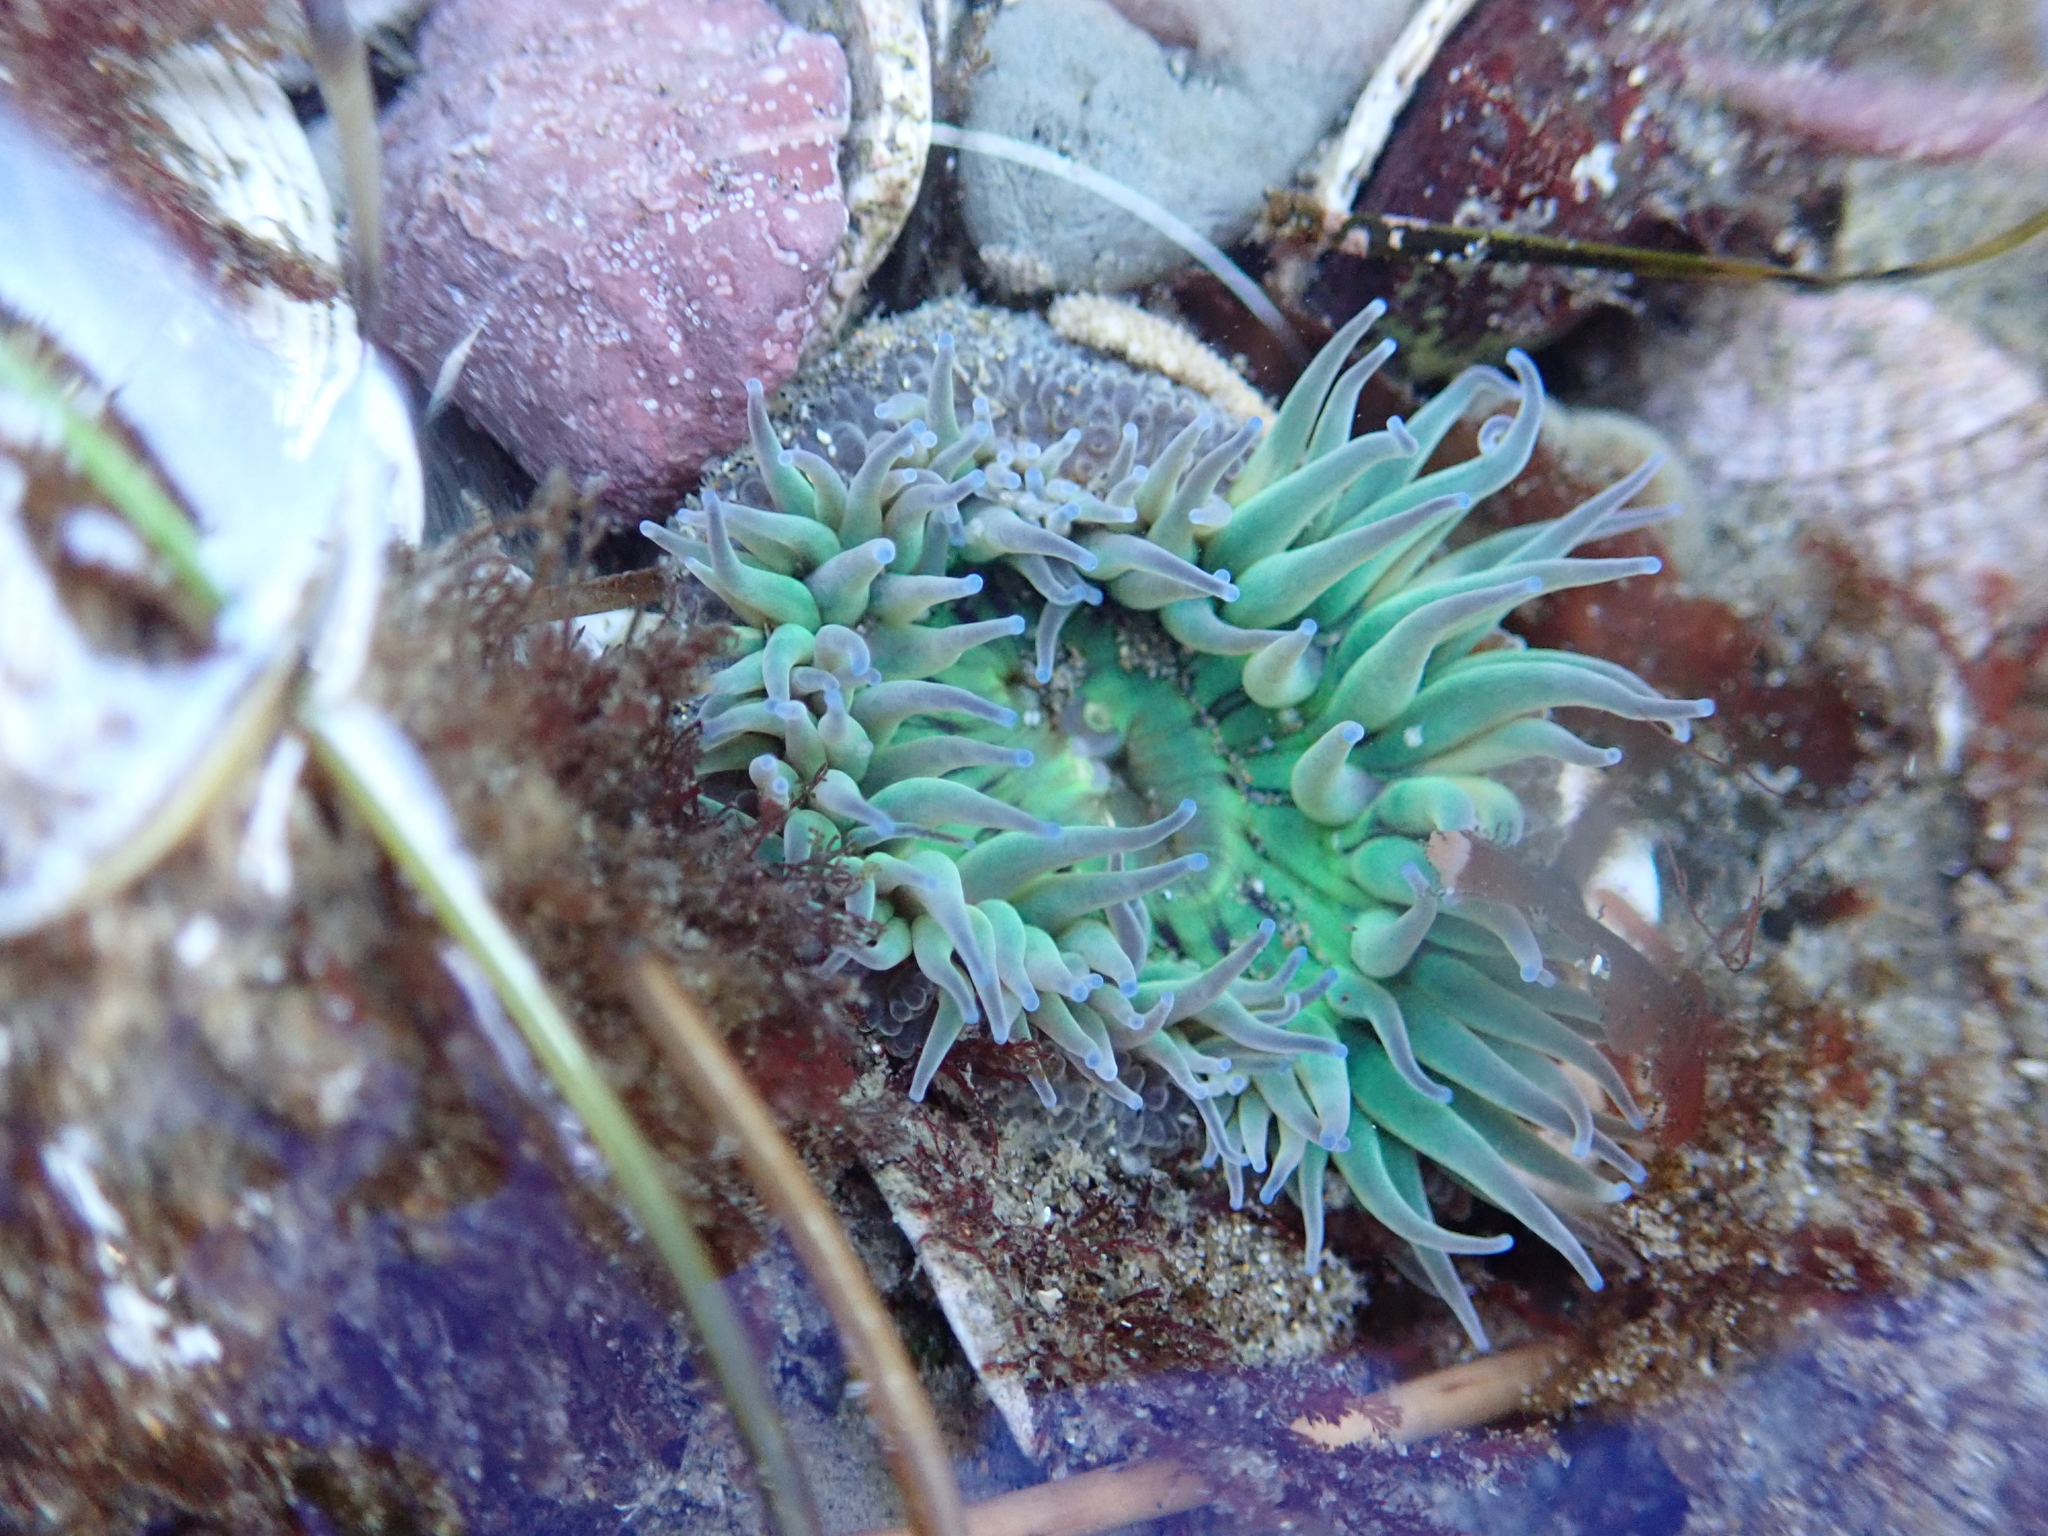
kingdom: Animalia
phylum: Cnidaria
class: Anthozoa
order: Actiniaria
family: Actiniidae
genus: Anthopleura
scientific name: Anthopleura sola
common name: Sun anemone
